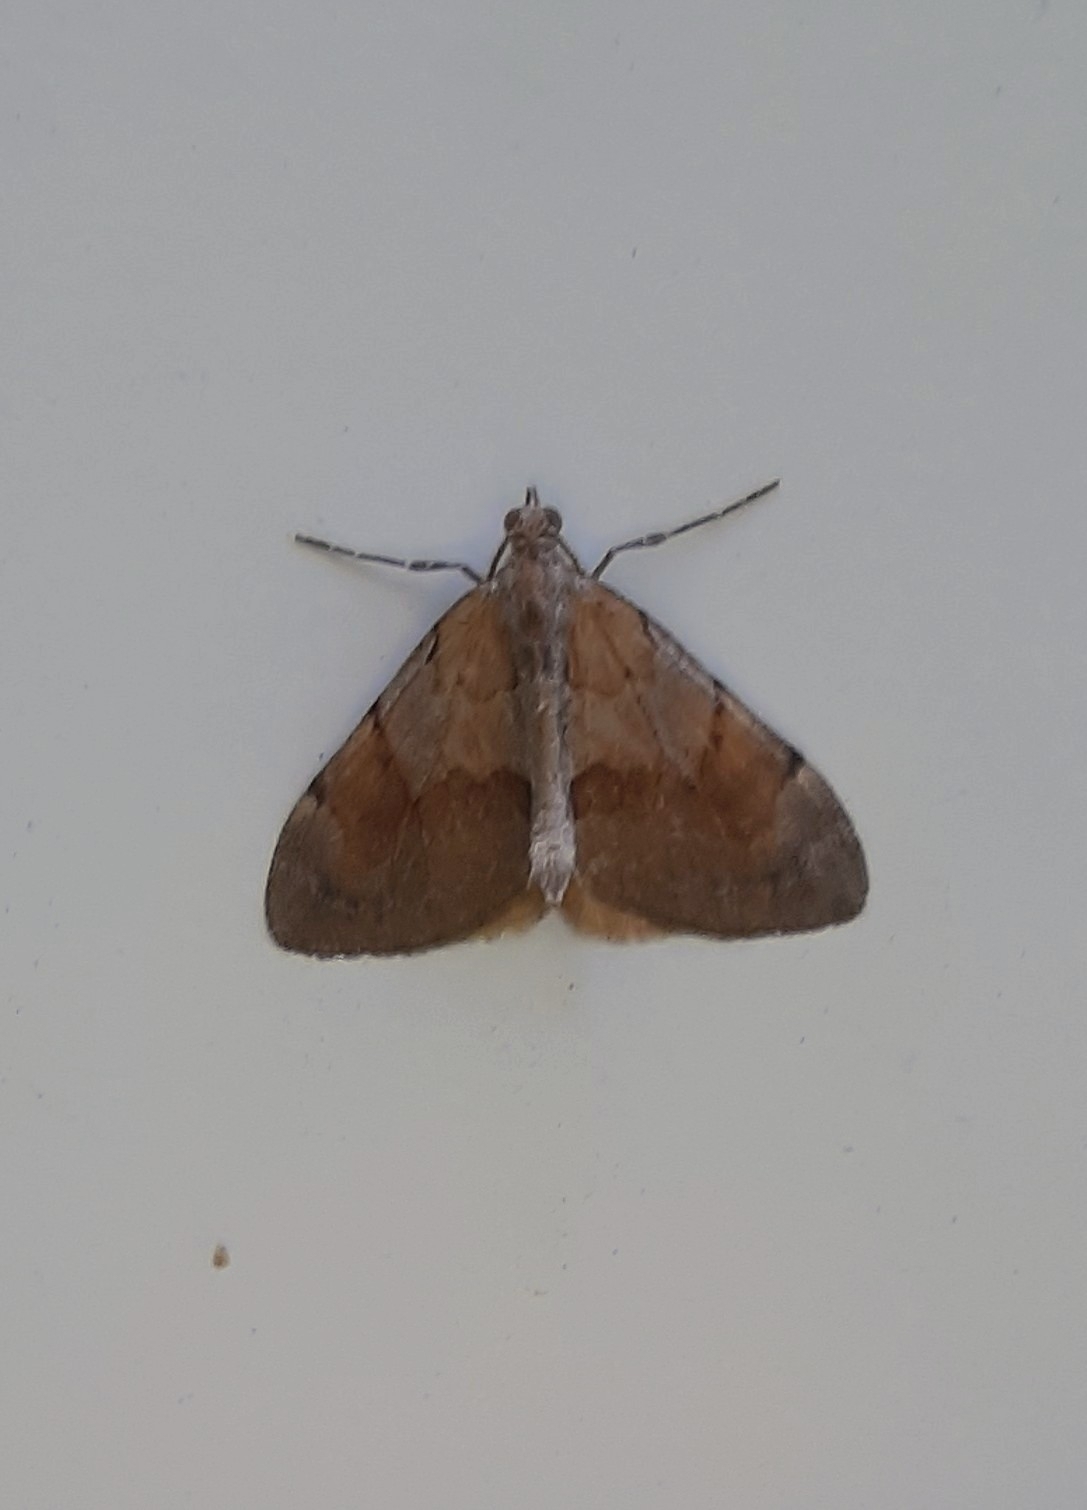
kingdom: Animalia
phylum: Arthropoda
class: Insecta
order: Lepidoptera
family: Geometridae
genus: Pennithera
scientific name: Pennithera firmata
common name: Pine carpet
